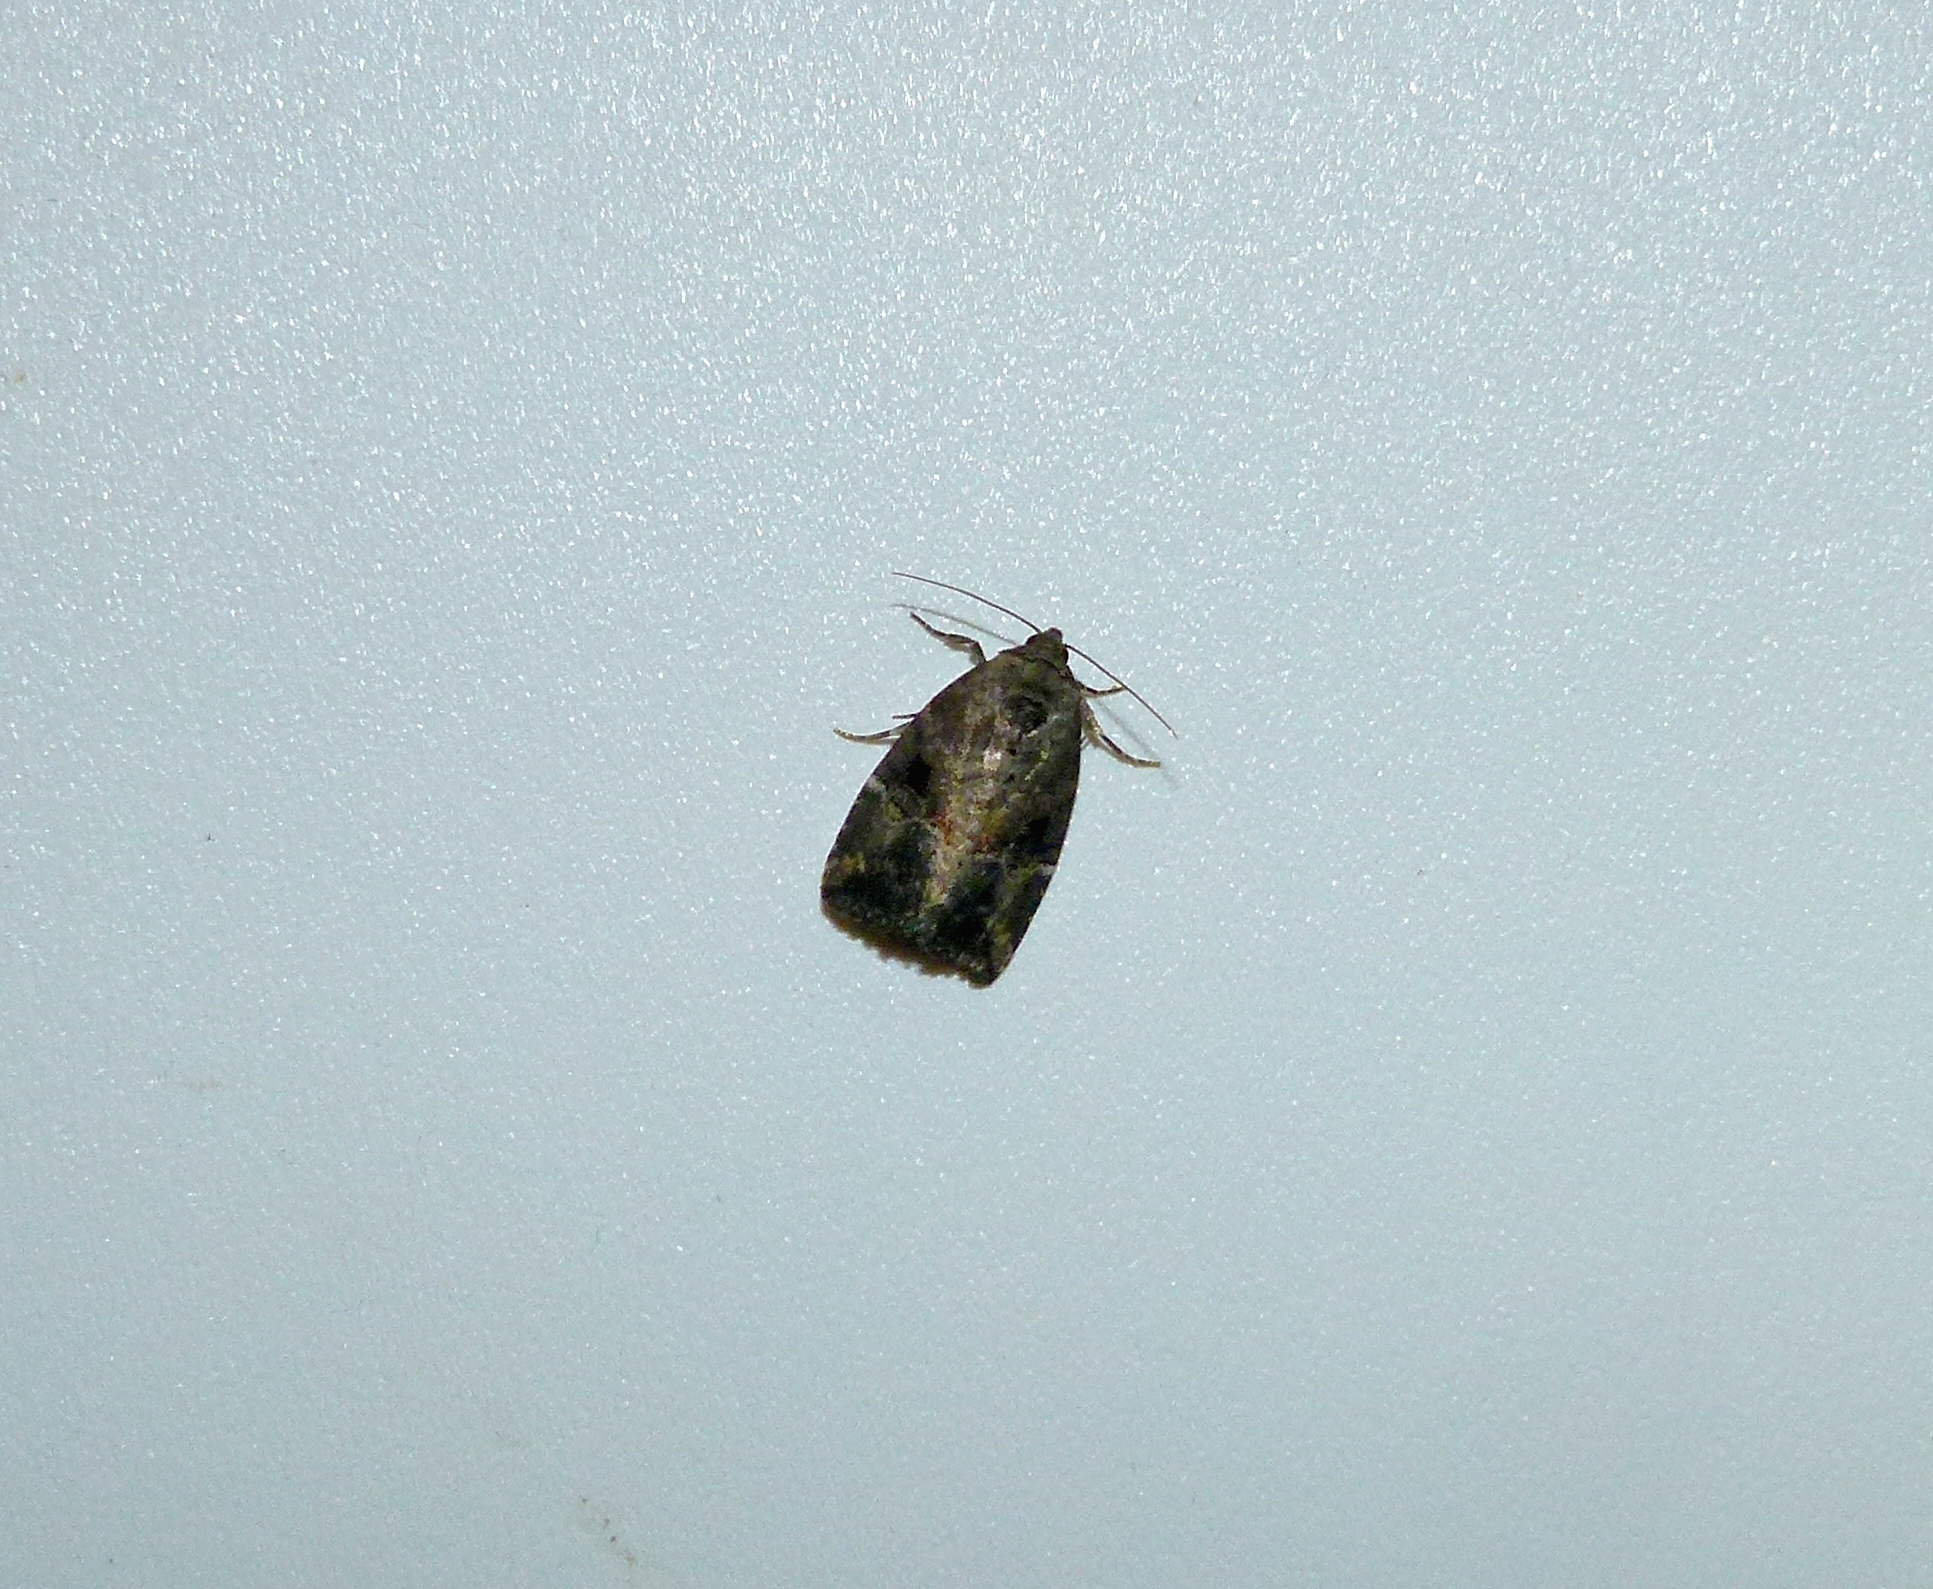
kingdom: Animalia
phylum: Arthropoda
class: Insecta
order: Lepidoptera
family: Noctuidae
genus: Elaphria
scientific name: Elaphria versicolor
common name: Fir harlequin
